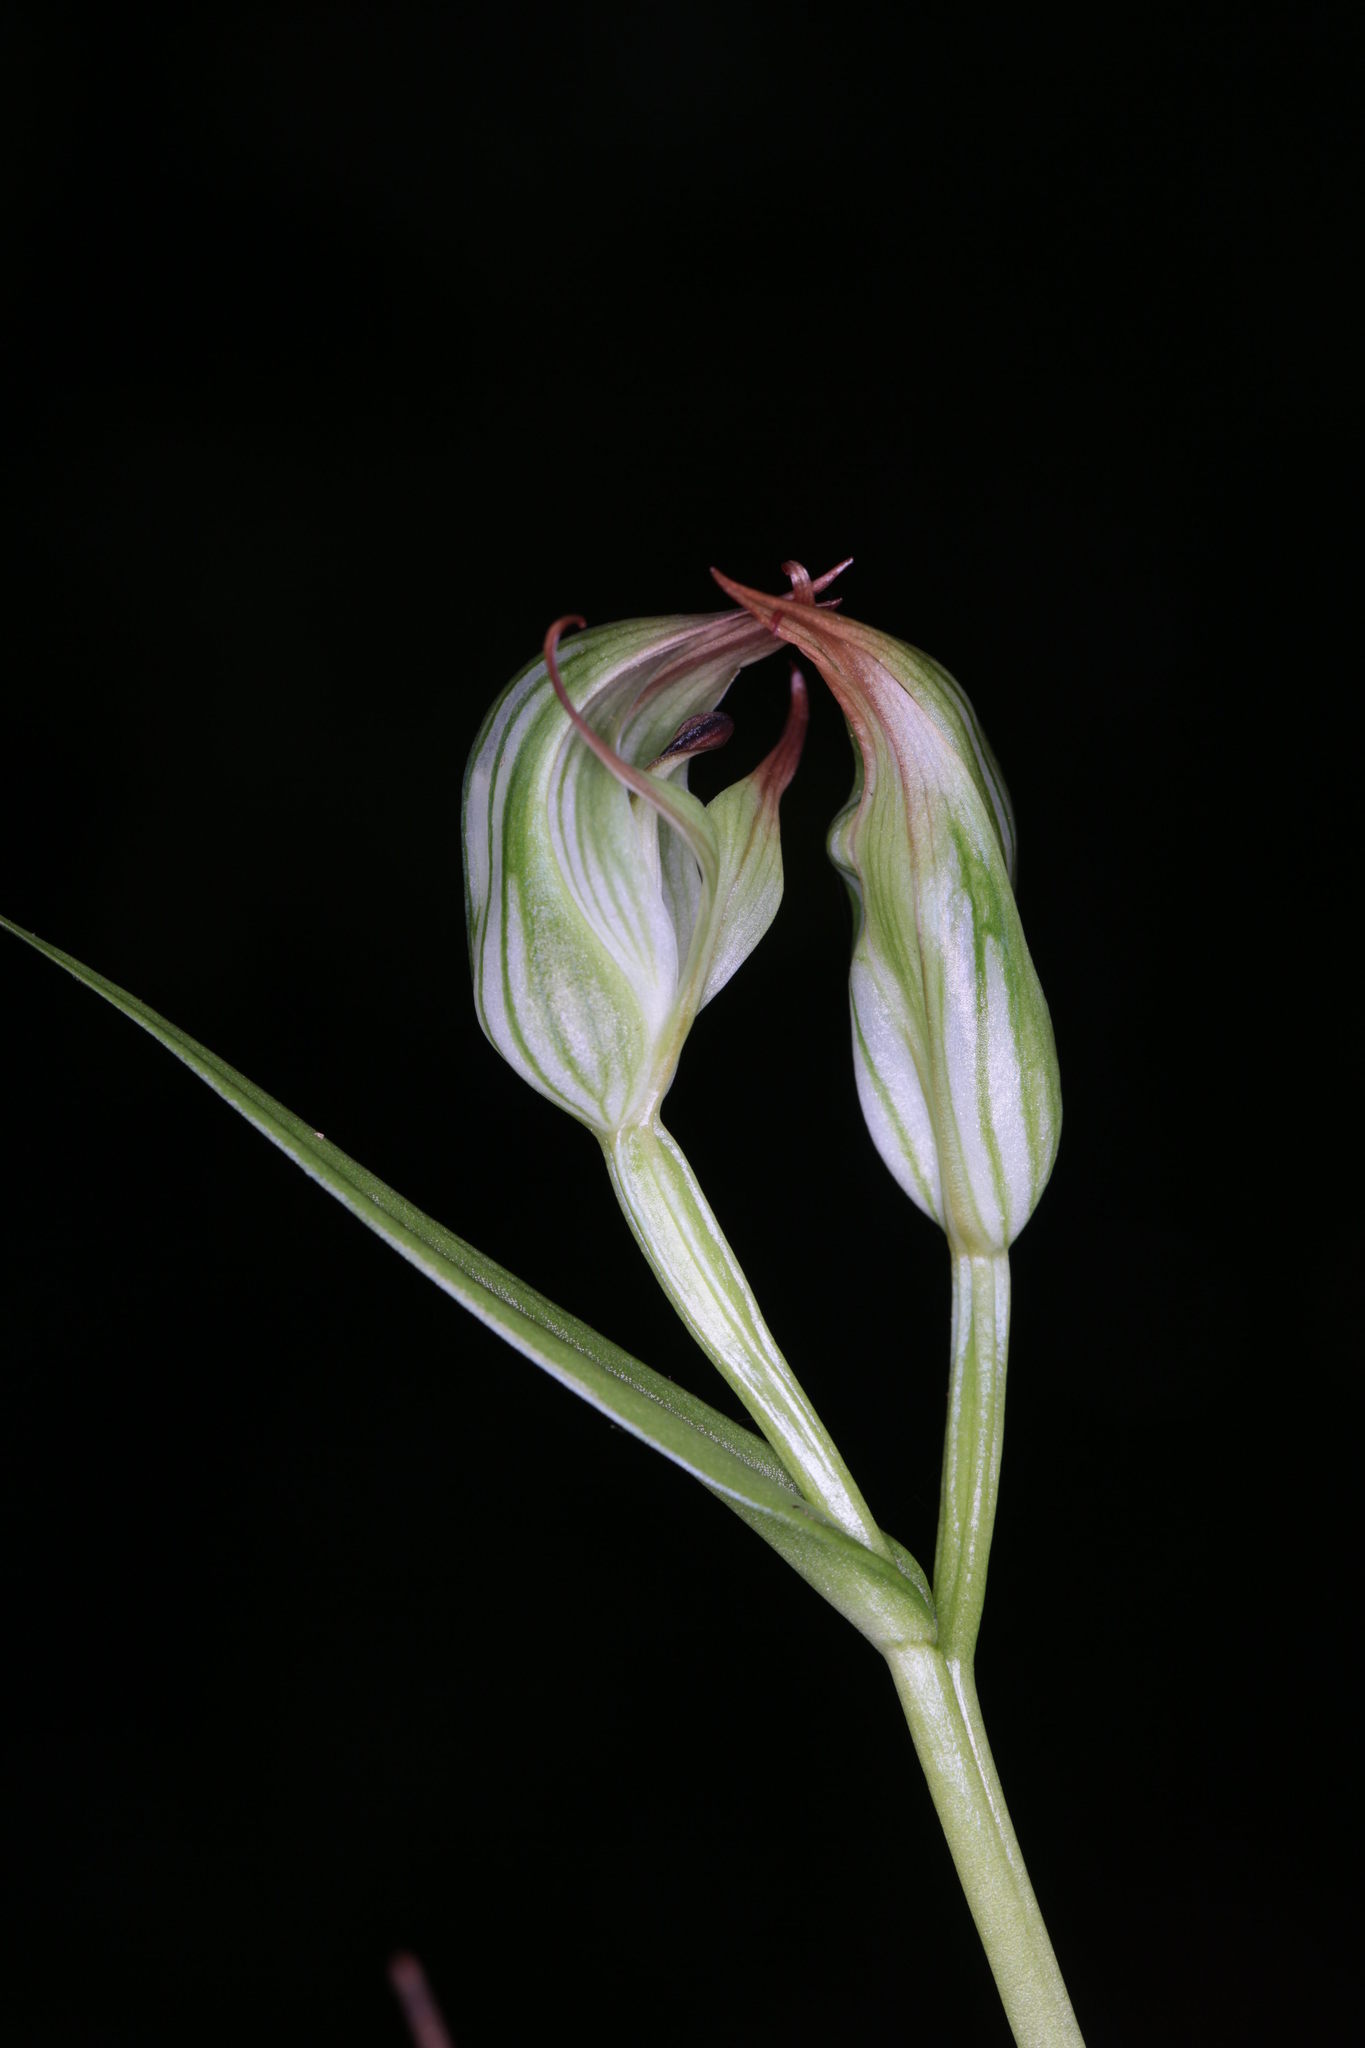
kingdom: Plantae
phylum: Tracheophyta
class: Liliopsida
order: Asparagales
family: Orchidaceae
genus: Pterostylis
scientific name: Pterostylis silvicultrix
